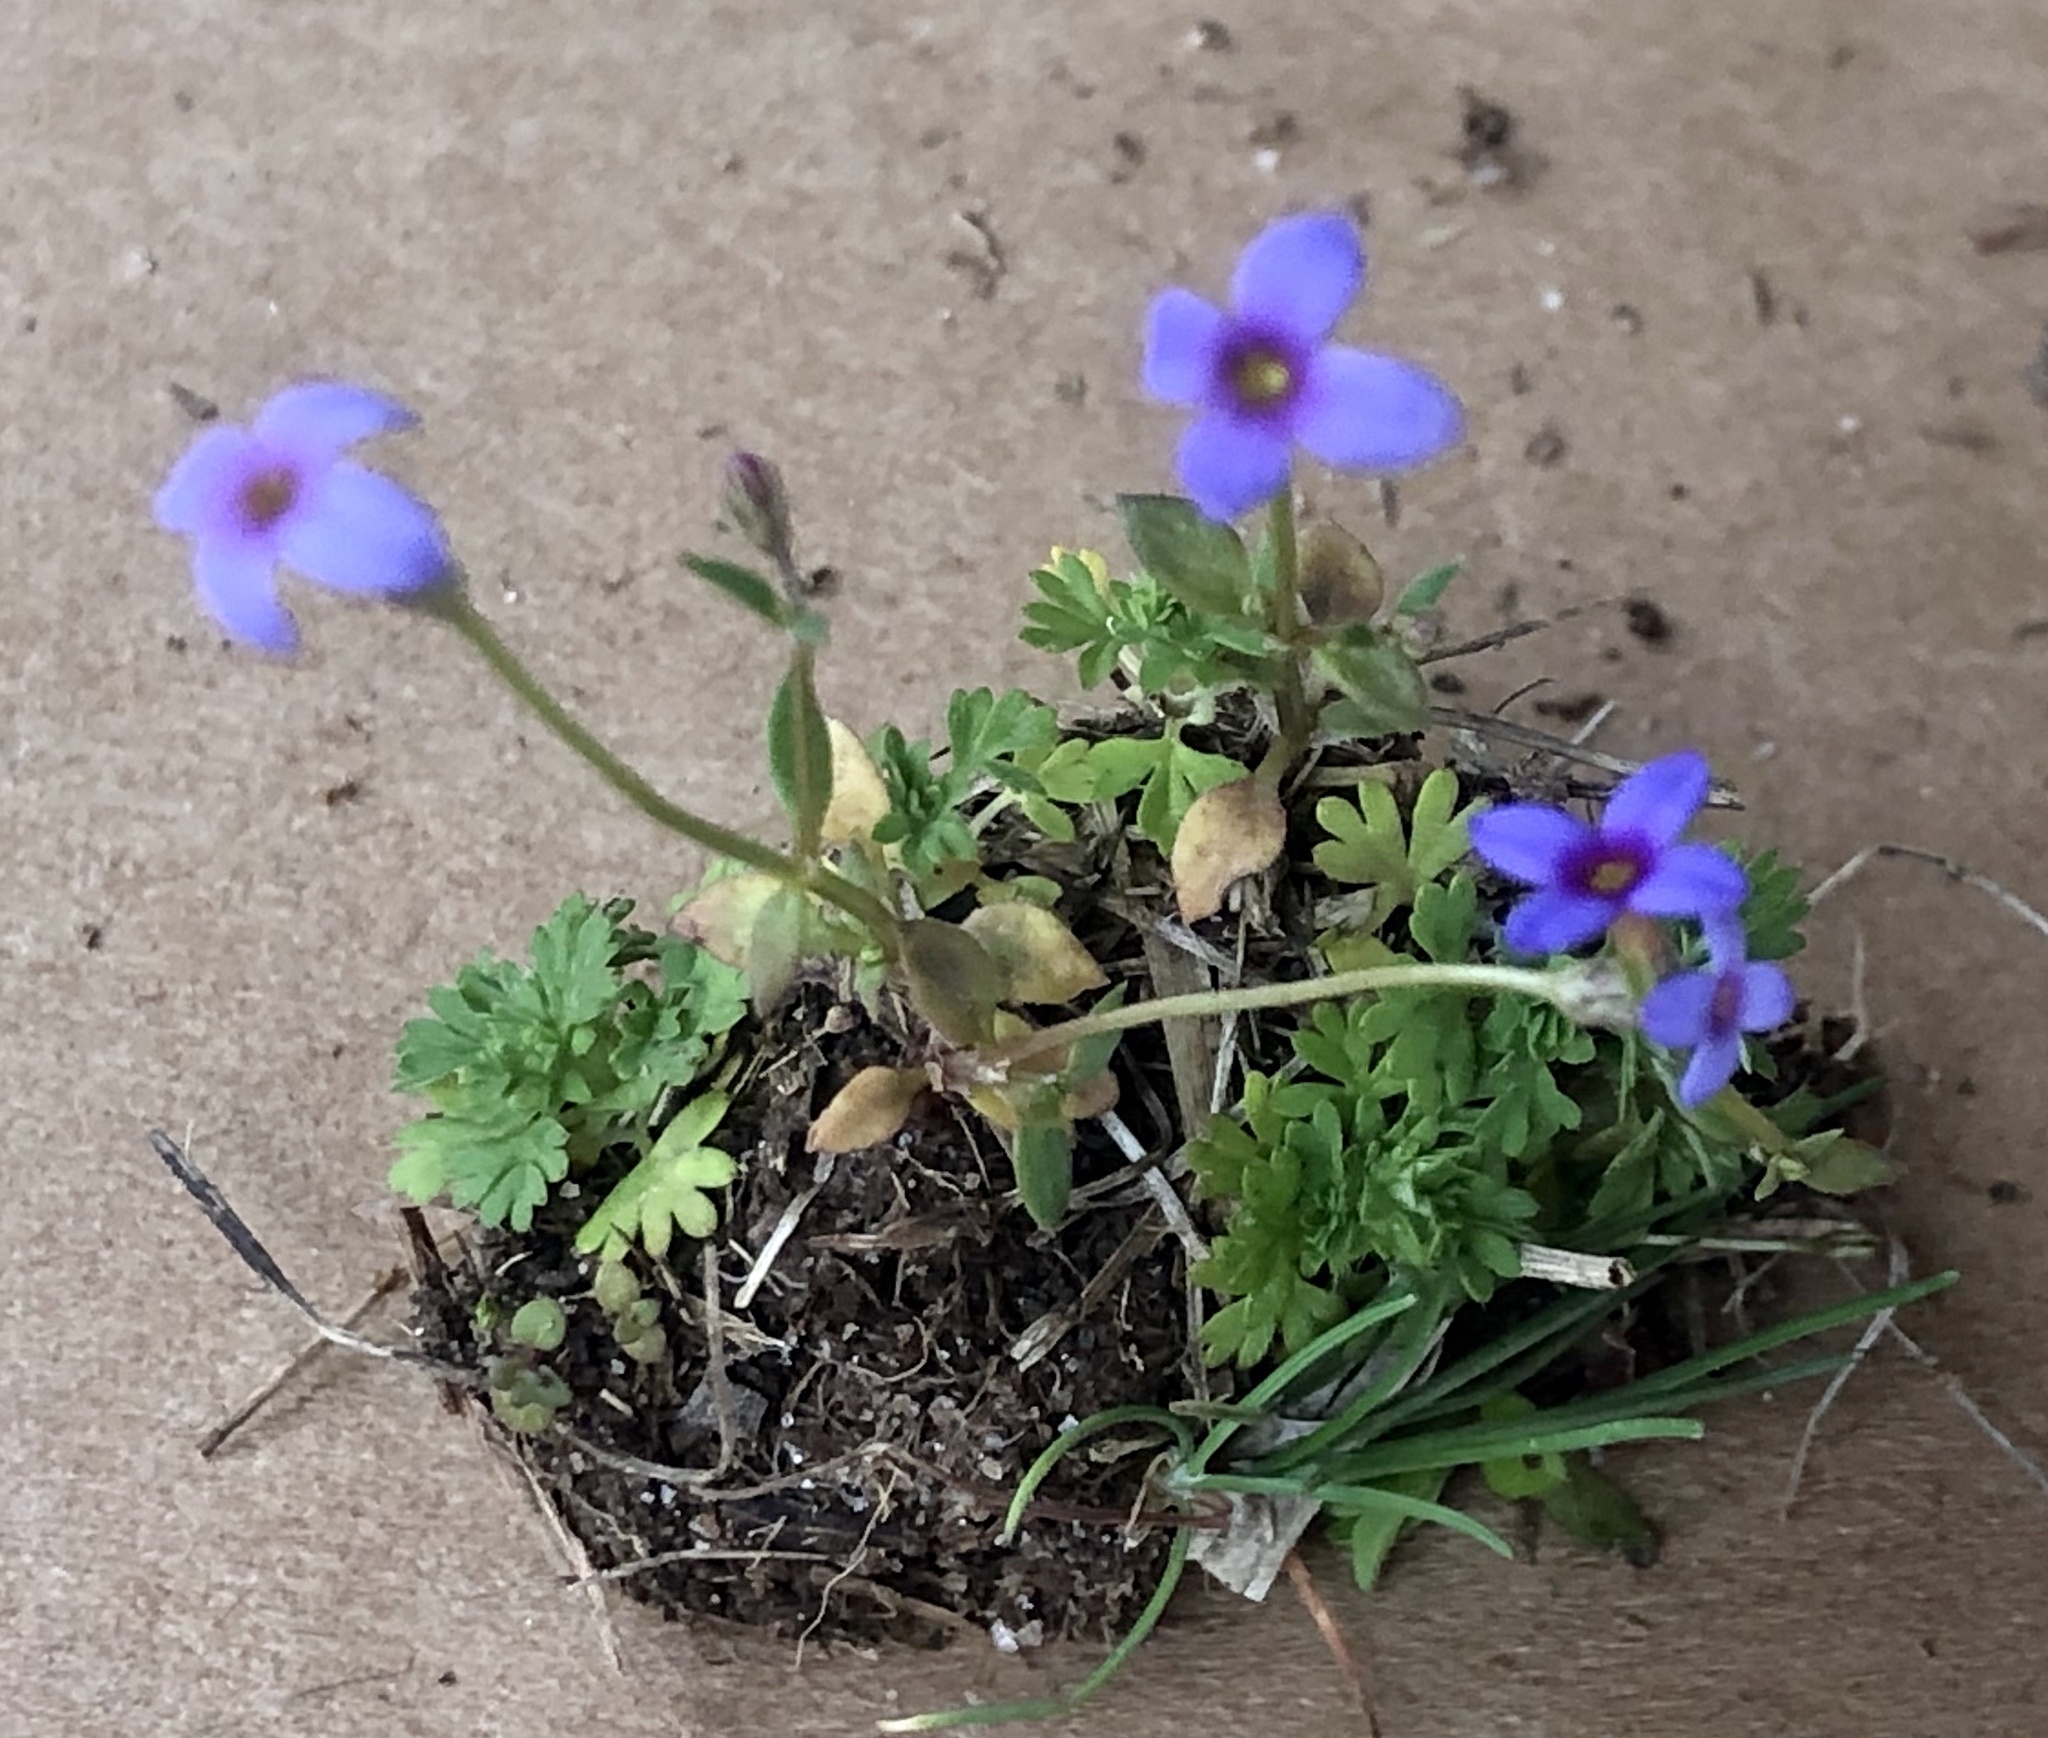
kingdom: Plantae
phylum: Tracheophyta
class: Magnoliopsida
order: Gentianales
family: Rubiaceae
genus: Houstonia
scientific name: Houstonia pusilla
